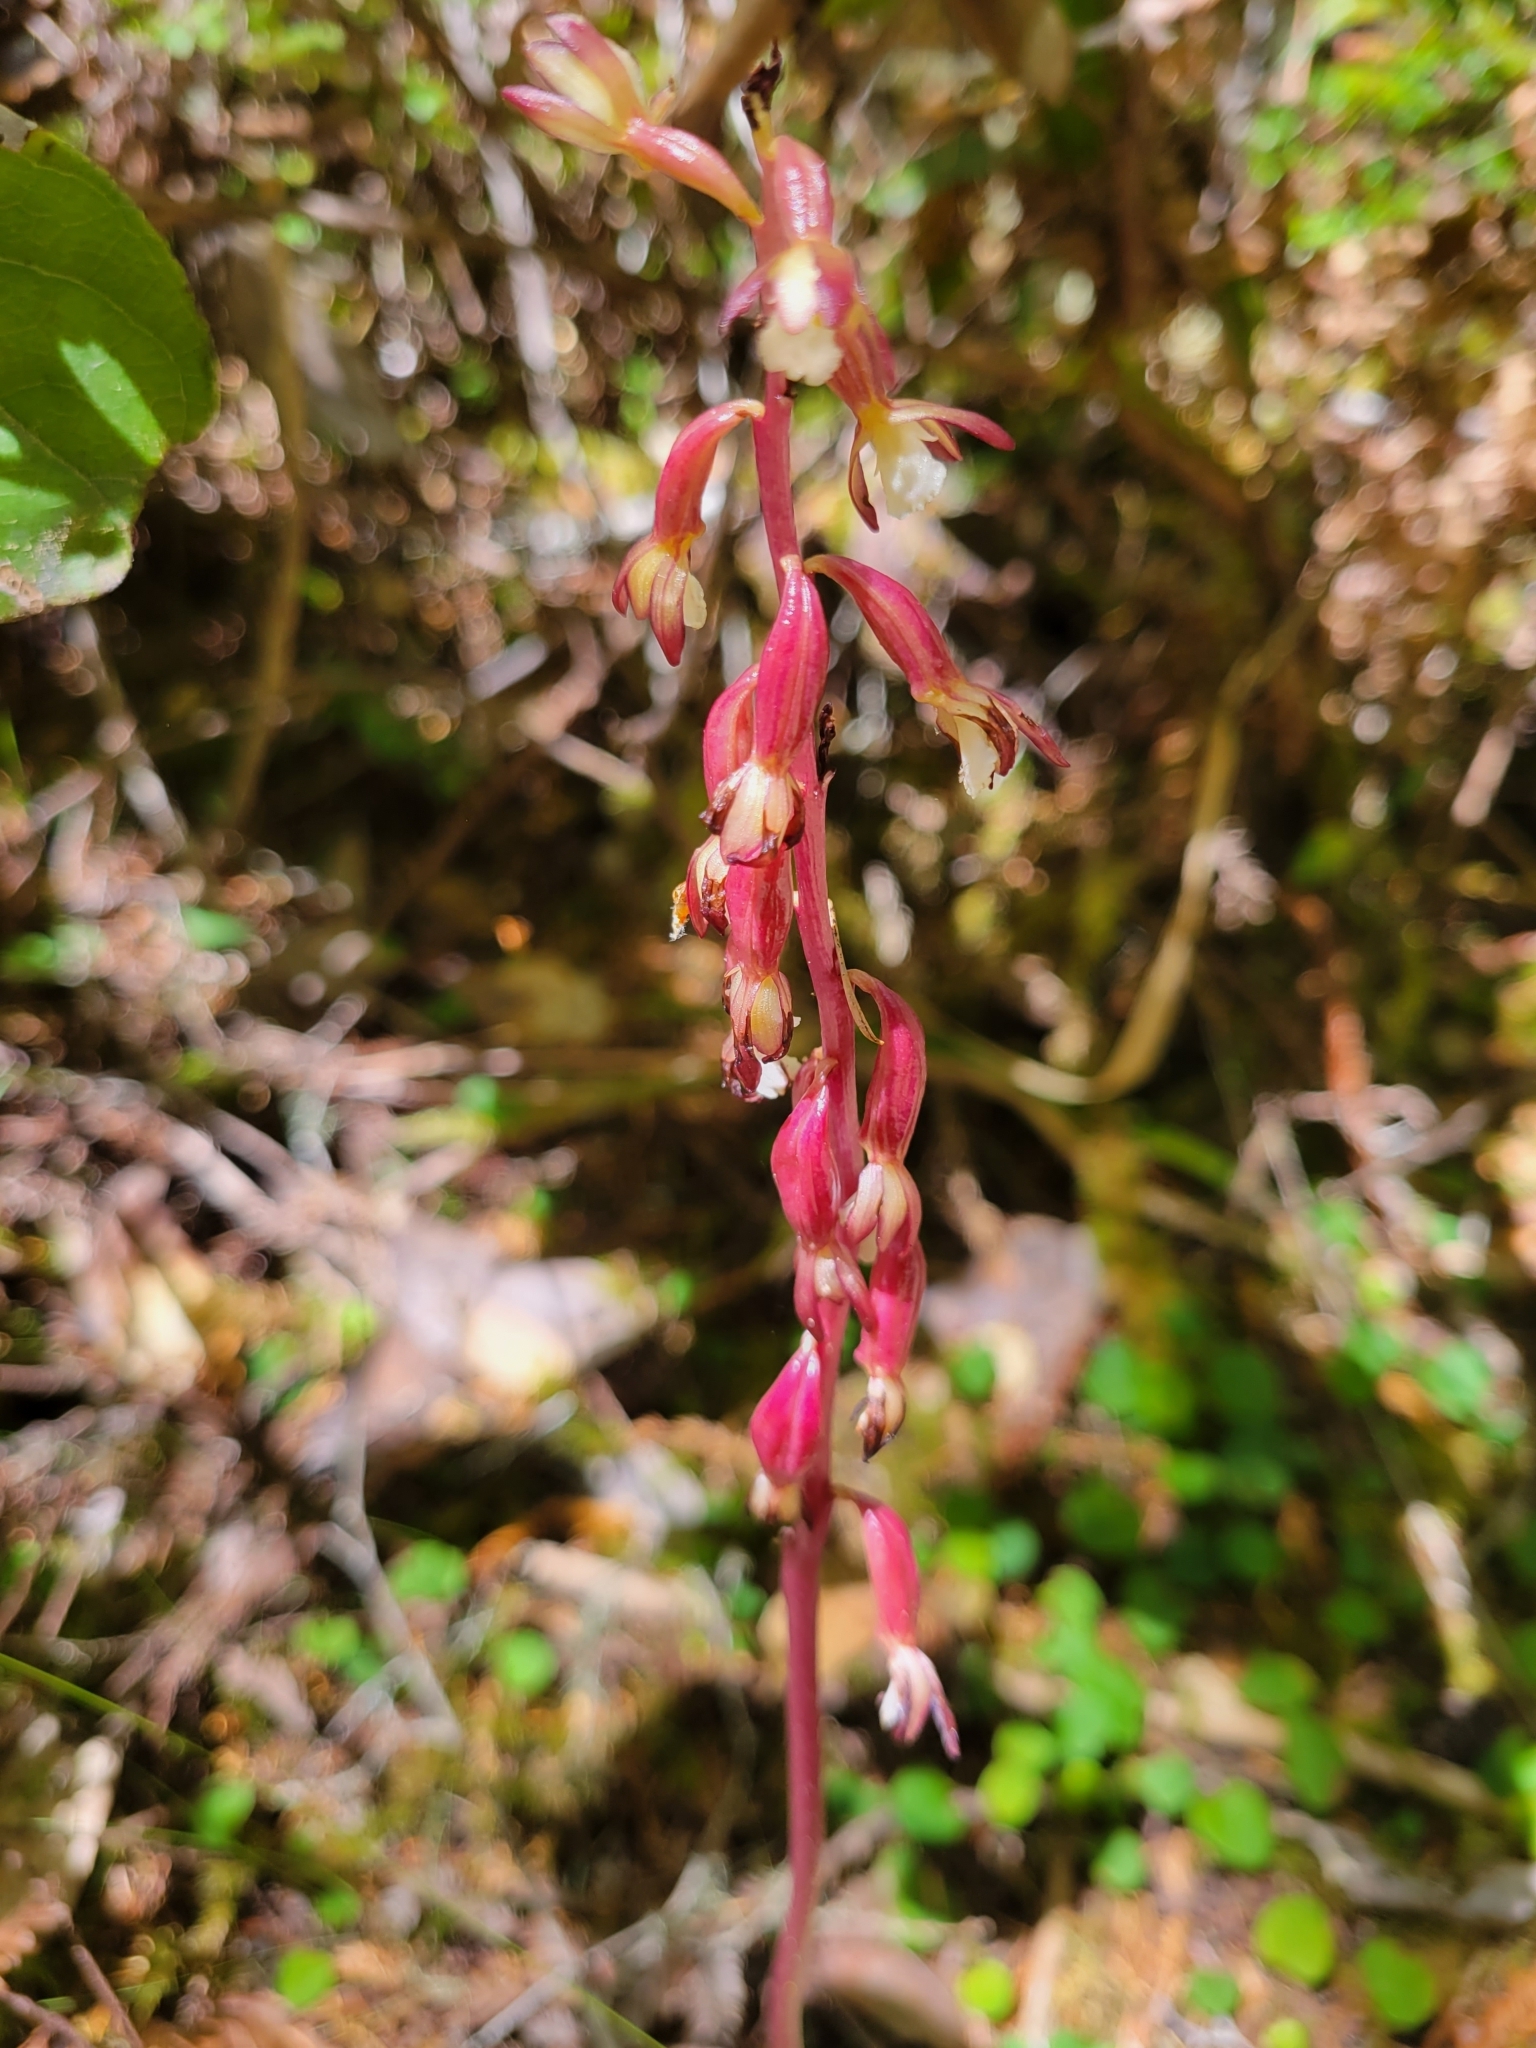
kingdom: Plantae
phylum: Tracheophyta
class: Liliopsida
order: Asparagales
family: Orchidaceae
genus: Corallorhiza
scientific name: Corallorhiza maculata
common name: Spotted coralroot
